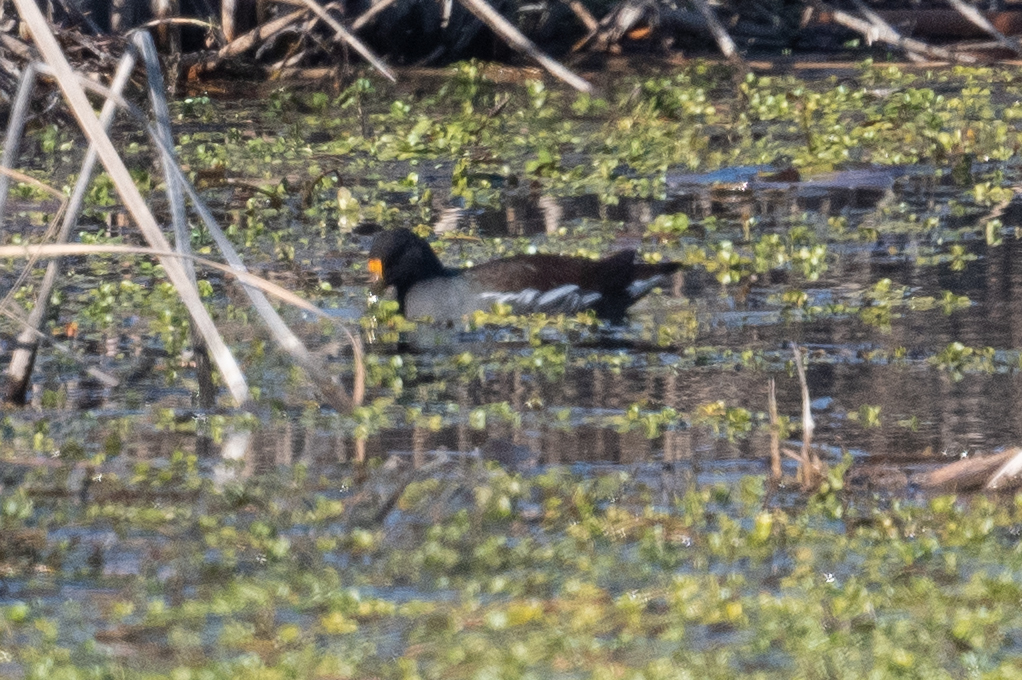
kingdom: Animalia
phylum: Chordata
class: Aves
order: Gruiformes
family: Rallidae
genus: Gallinula
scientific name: Gallinula chloropus
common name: Common moorhen
